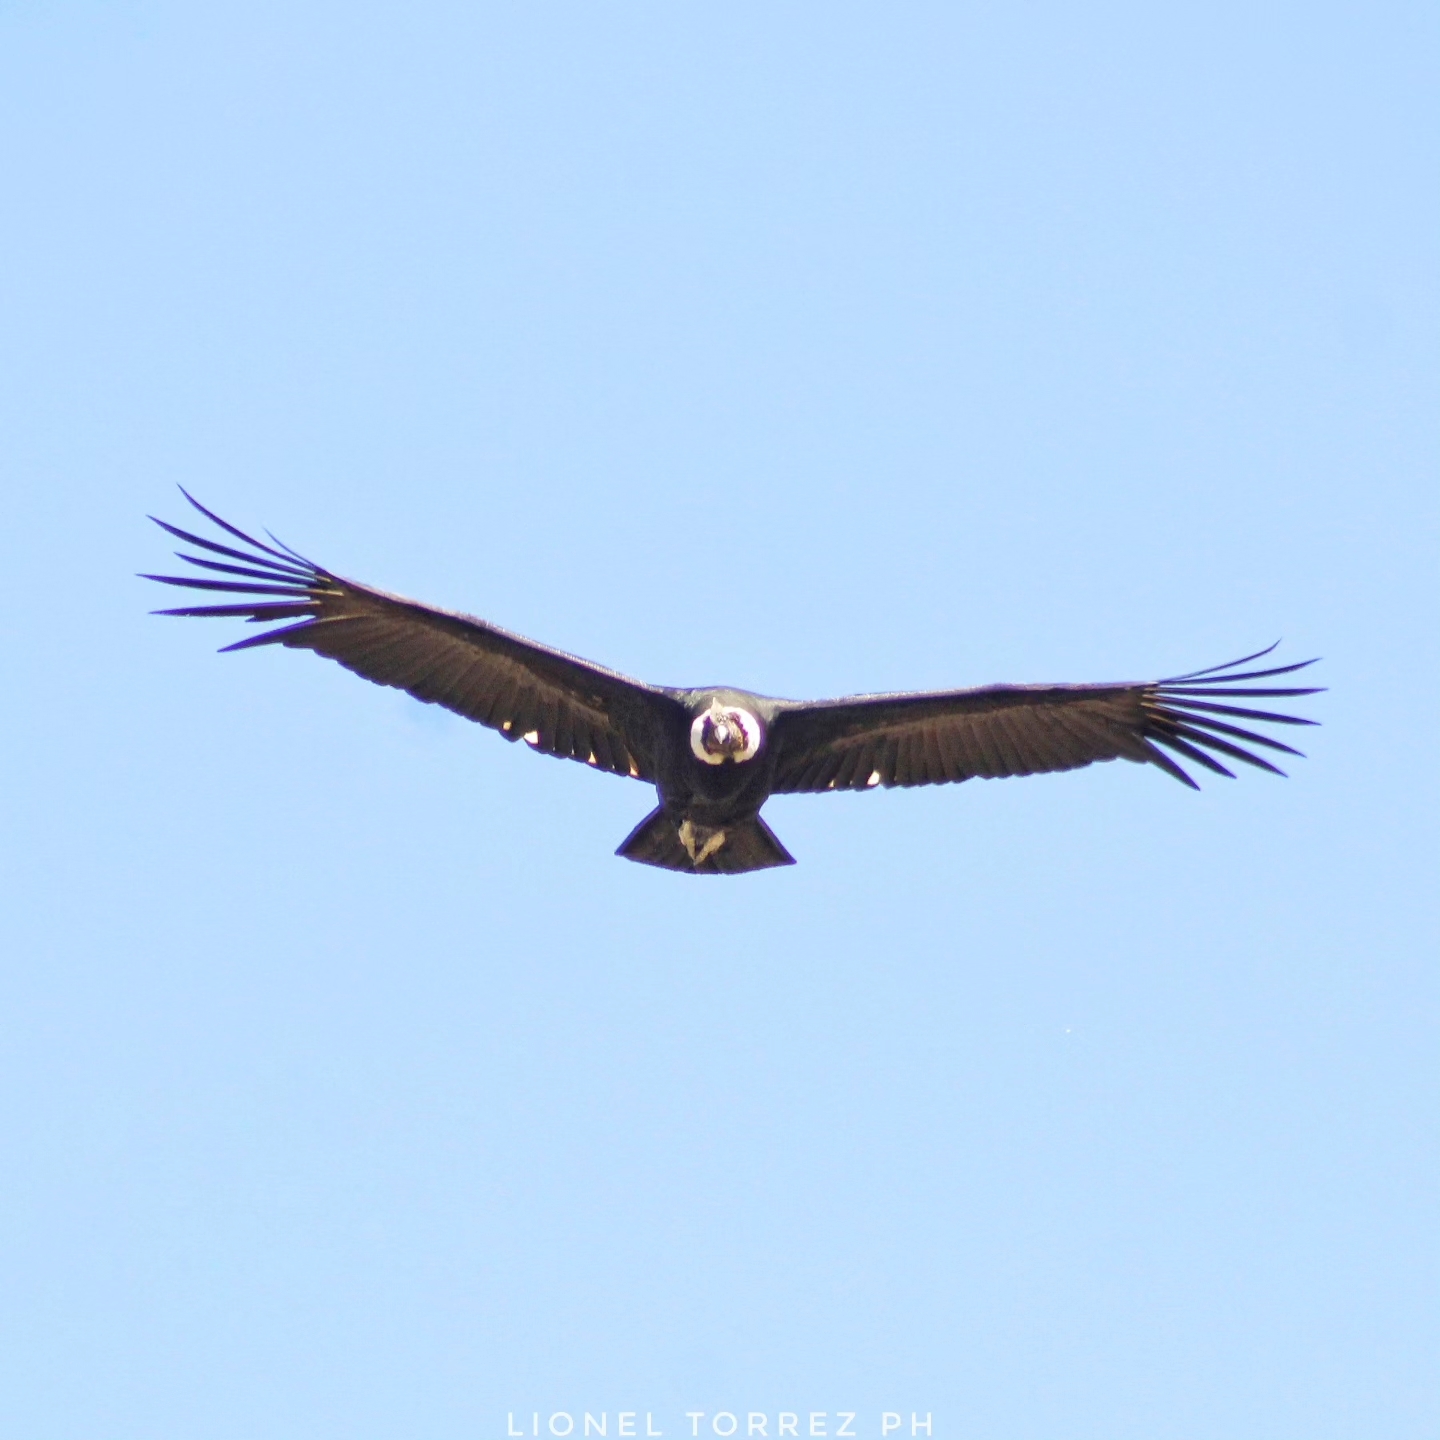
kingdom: Animalia
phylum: Chordata
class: Aves
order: Accipitriformes
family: Cathartidae
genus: Vultur
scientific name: Vultur gryphus
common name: Andean condor
